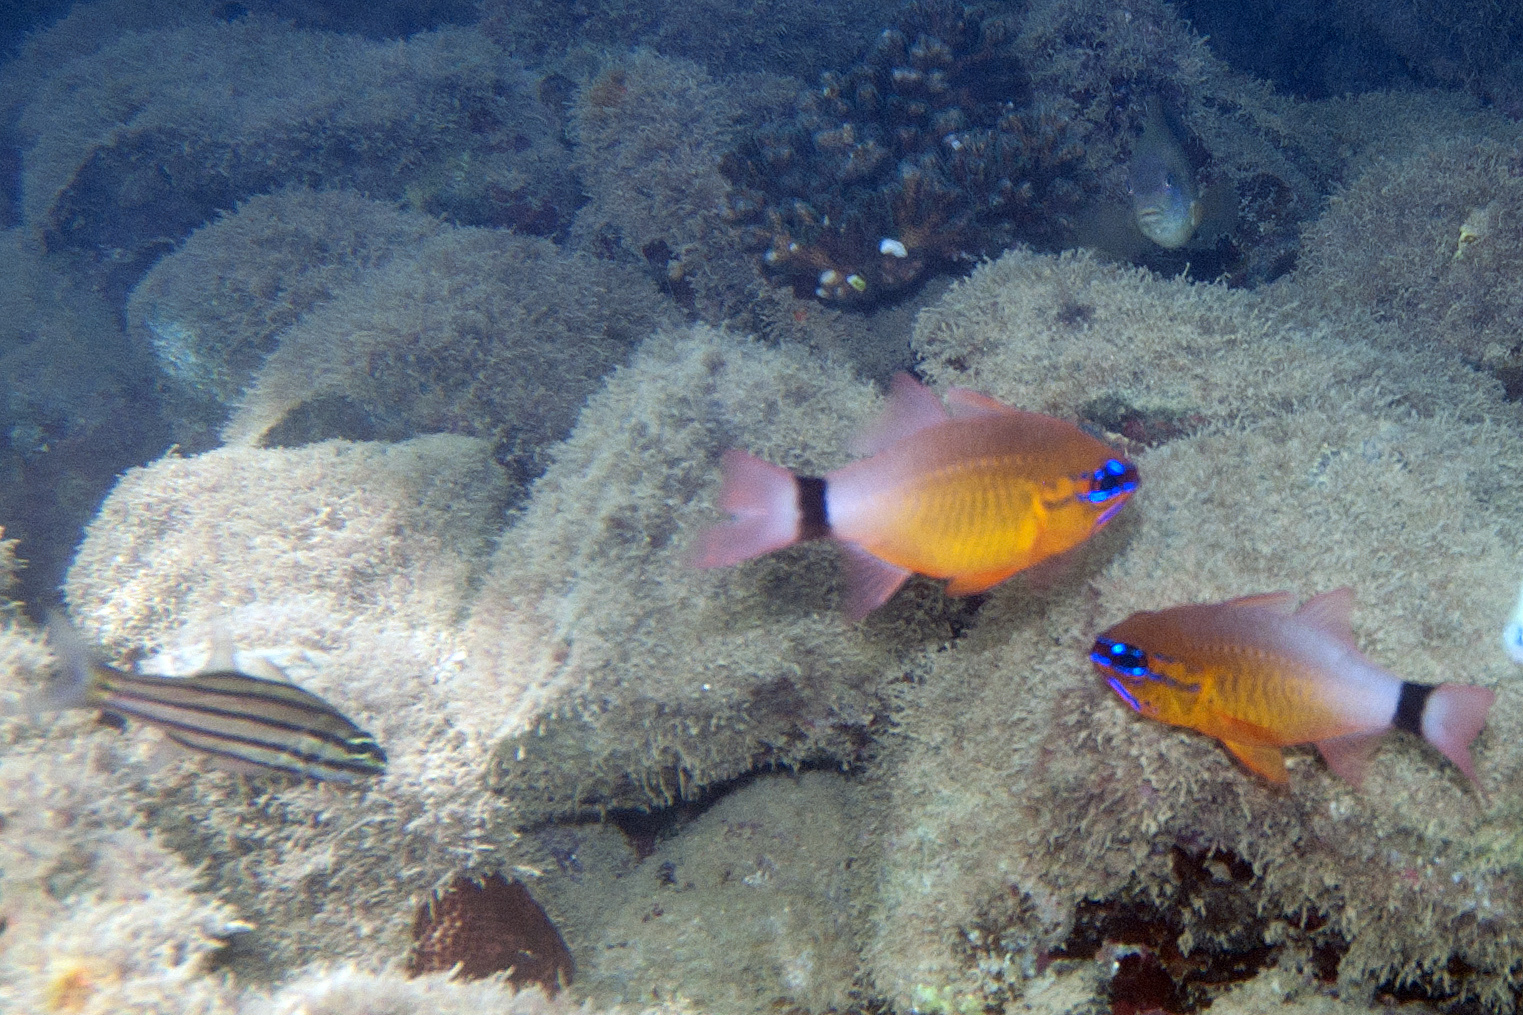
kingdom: Animalia
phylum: Chordata
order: Perciformes
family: Apogonidae
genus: Ostorhinchus
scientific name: Ostorhinchus aureus
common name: Ring-tailed cardinalfish
